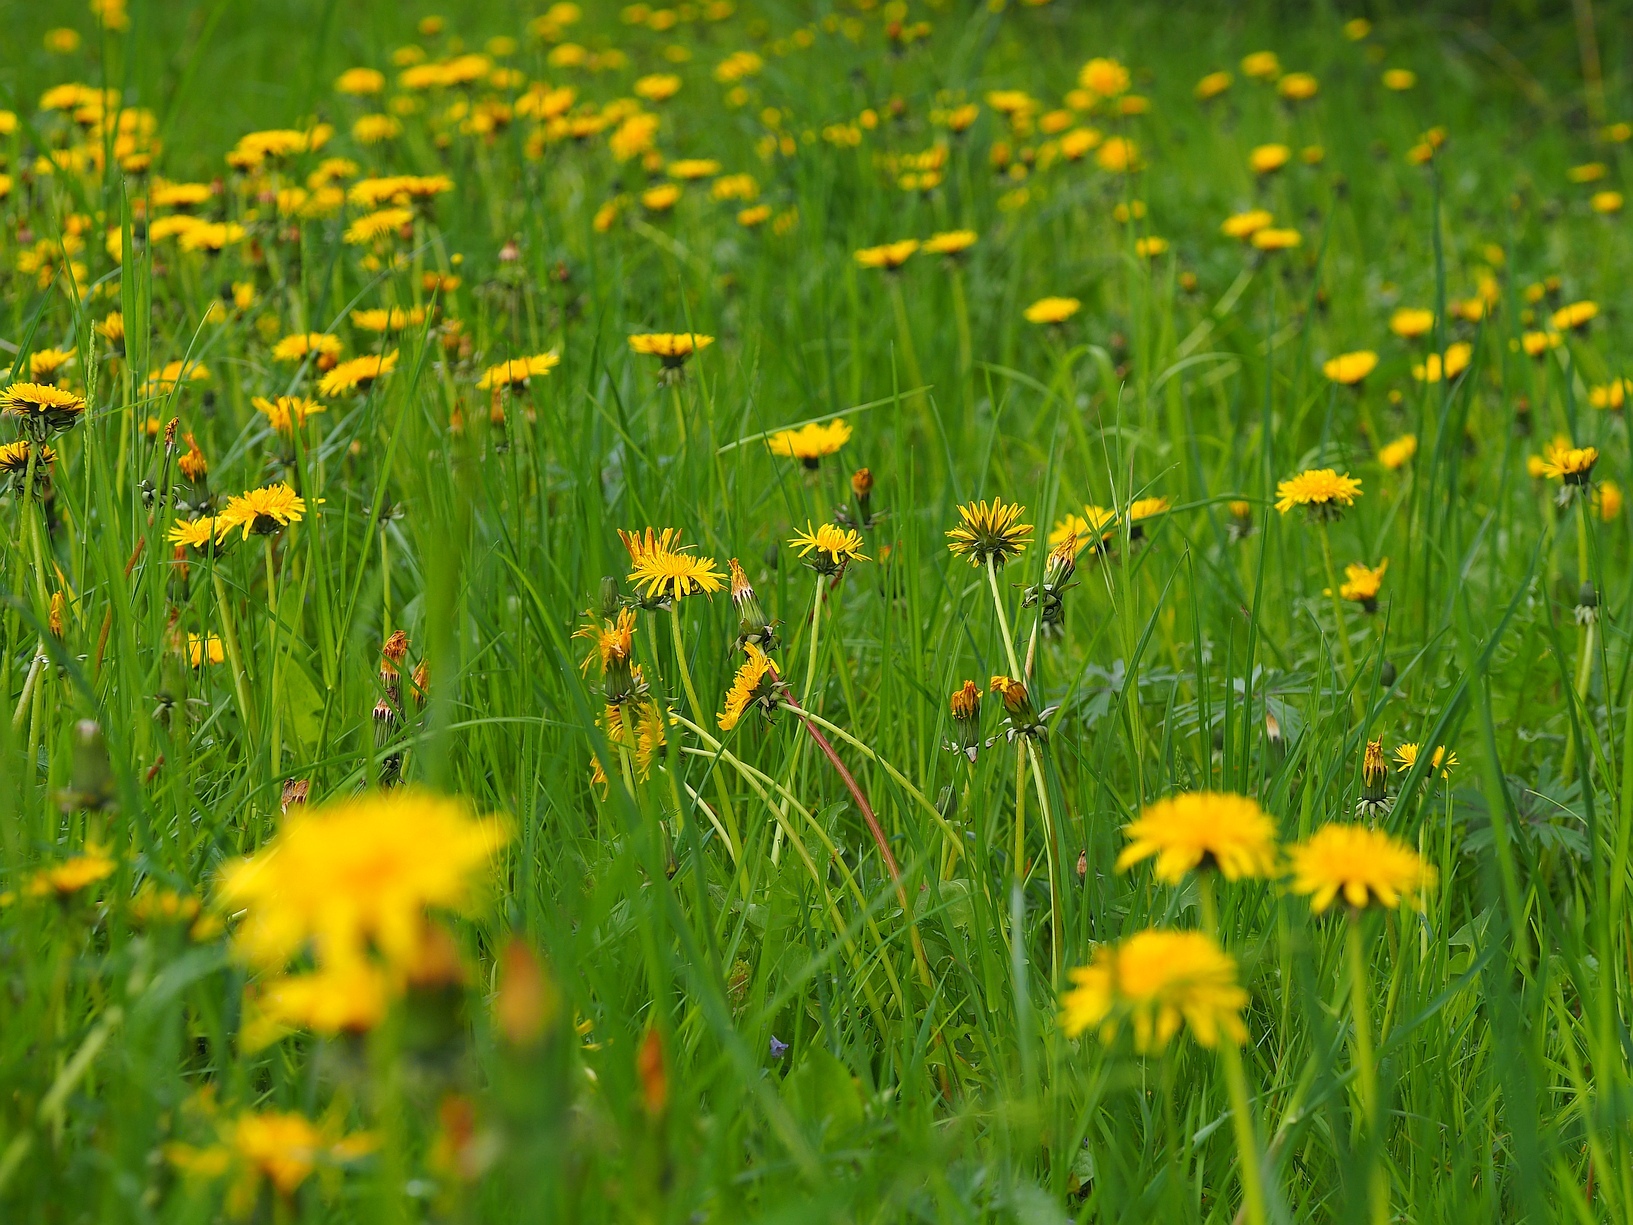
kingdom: Plantae
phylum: Tracheophyta
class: Magnoliopsida
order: Asterales
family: Asteraceae
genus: Taraxacum
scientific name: Taraxacum
